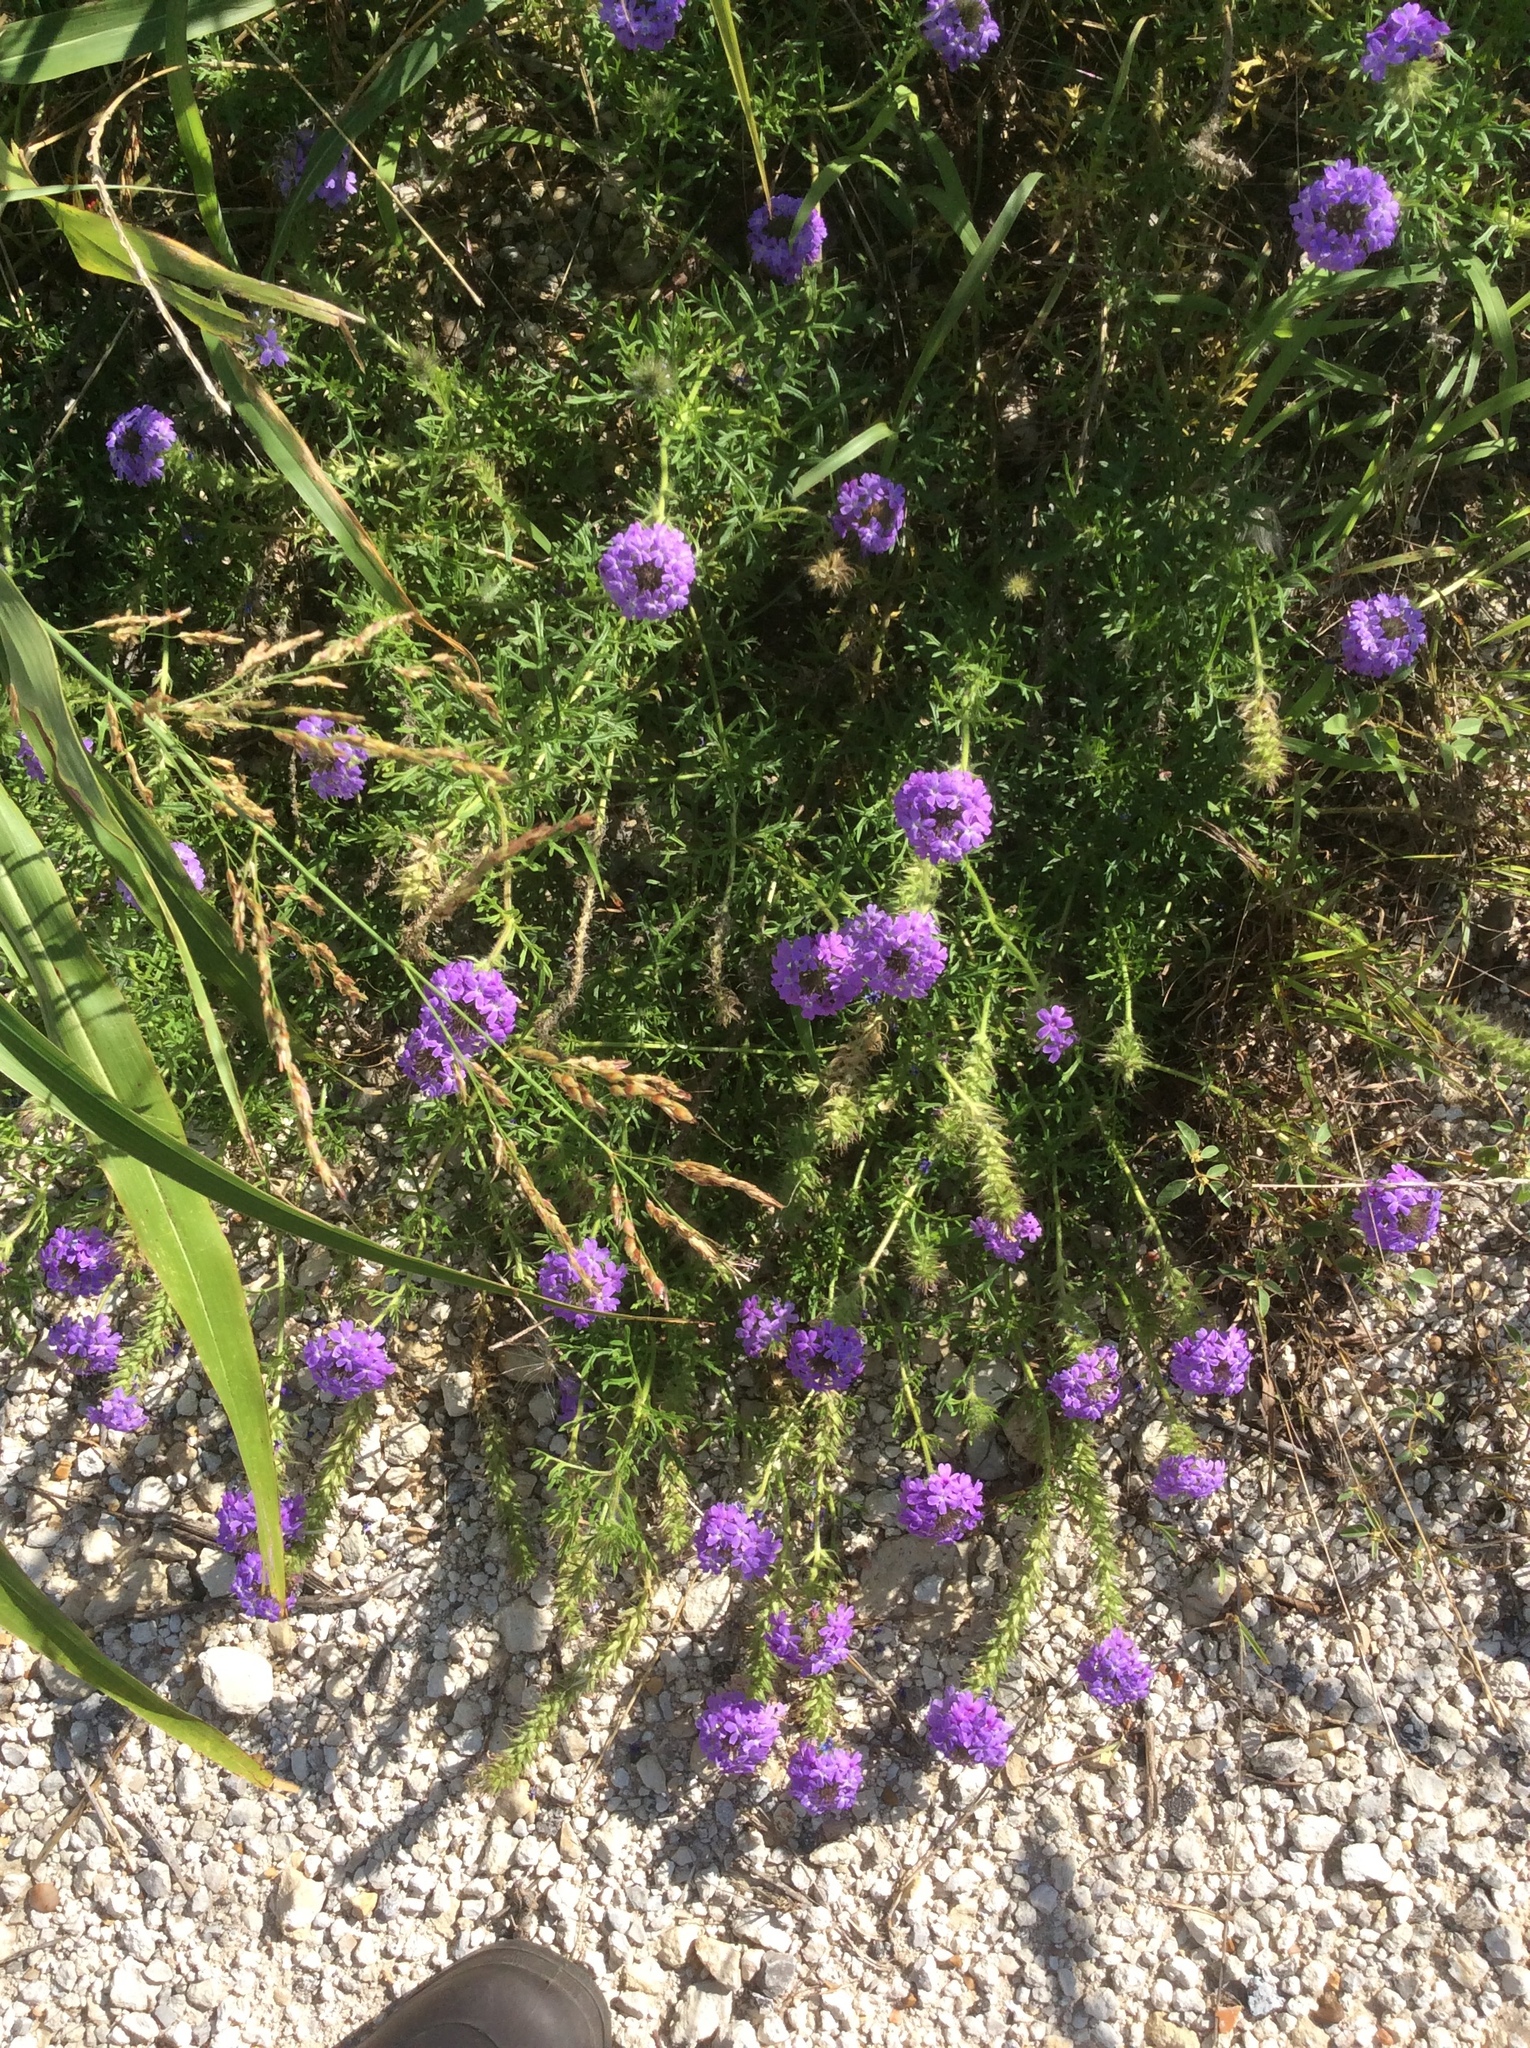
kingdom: Plantae
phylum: Tracheophyta
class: Magnoliopsida
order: Lamiales
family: Verbenaceae
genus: Verbena
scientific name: Verbena bipinnatifida
